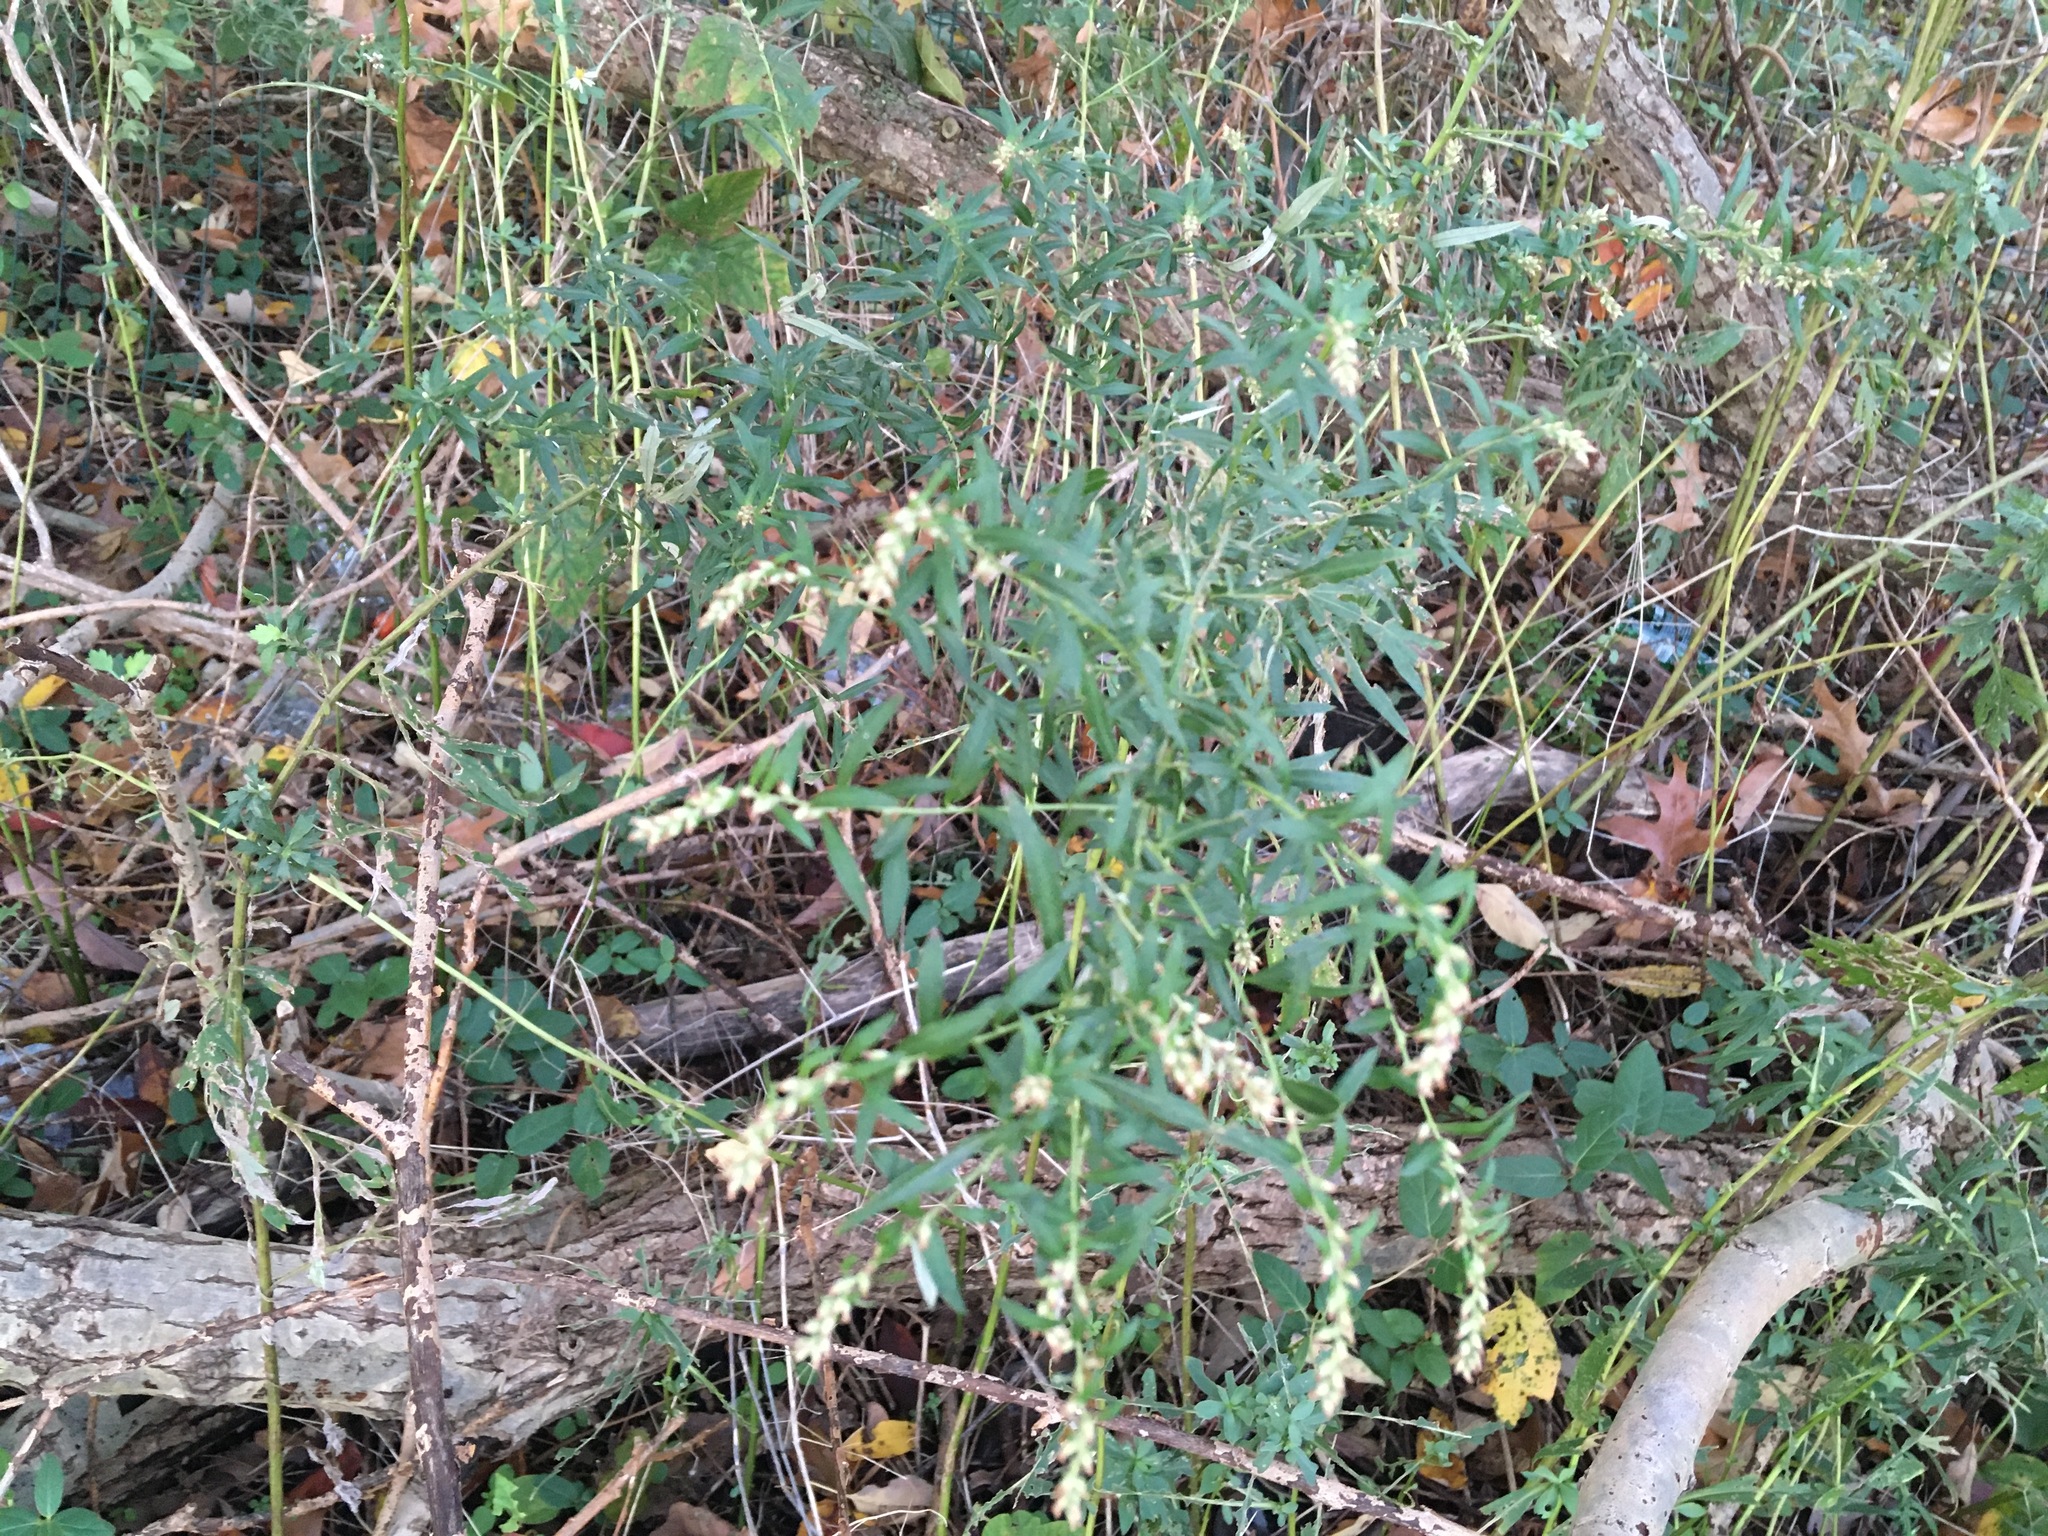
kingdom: Plantae
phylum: Tracheophyta
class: Magnoliopsida
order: Asterales
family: Asteraceae
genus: Artemisia
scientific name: Artemisia vulgaris
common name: Mugwort
